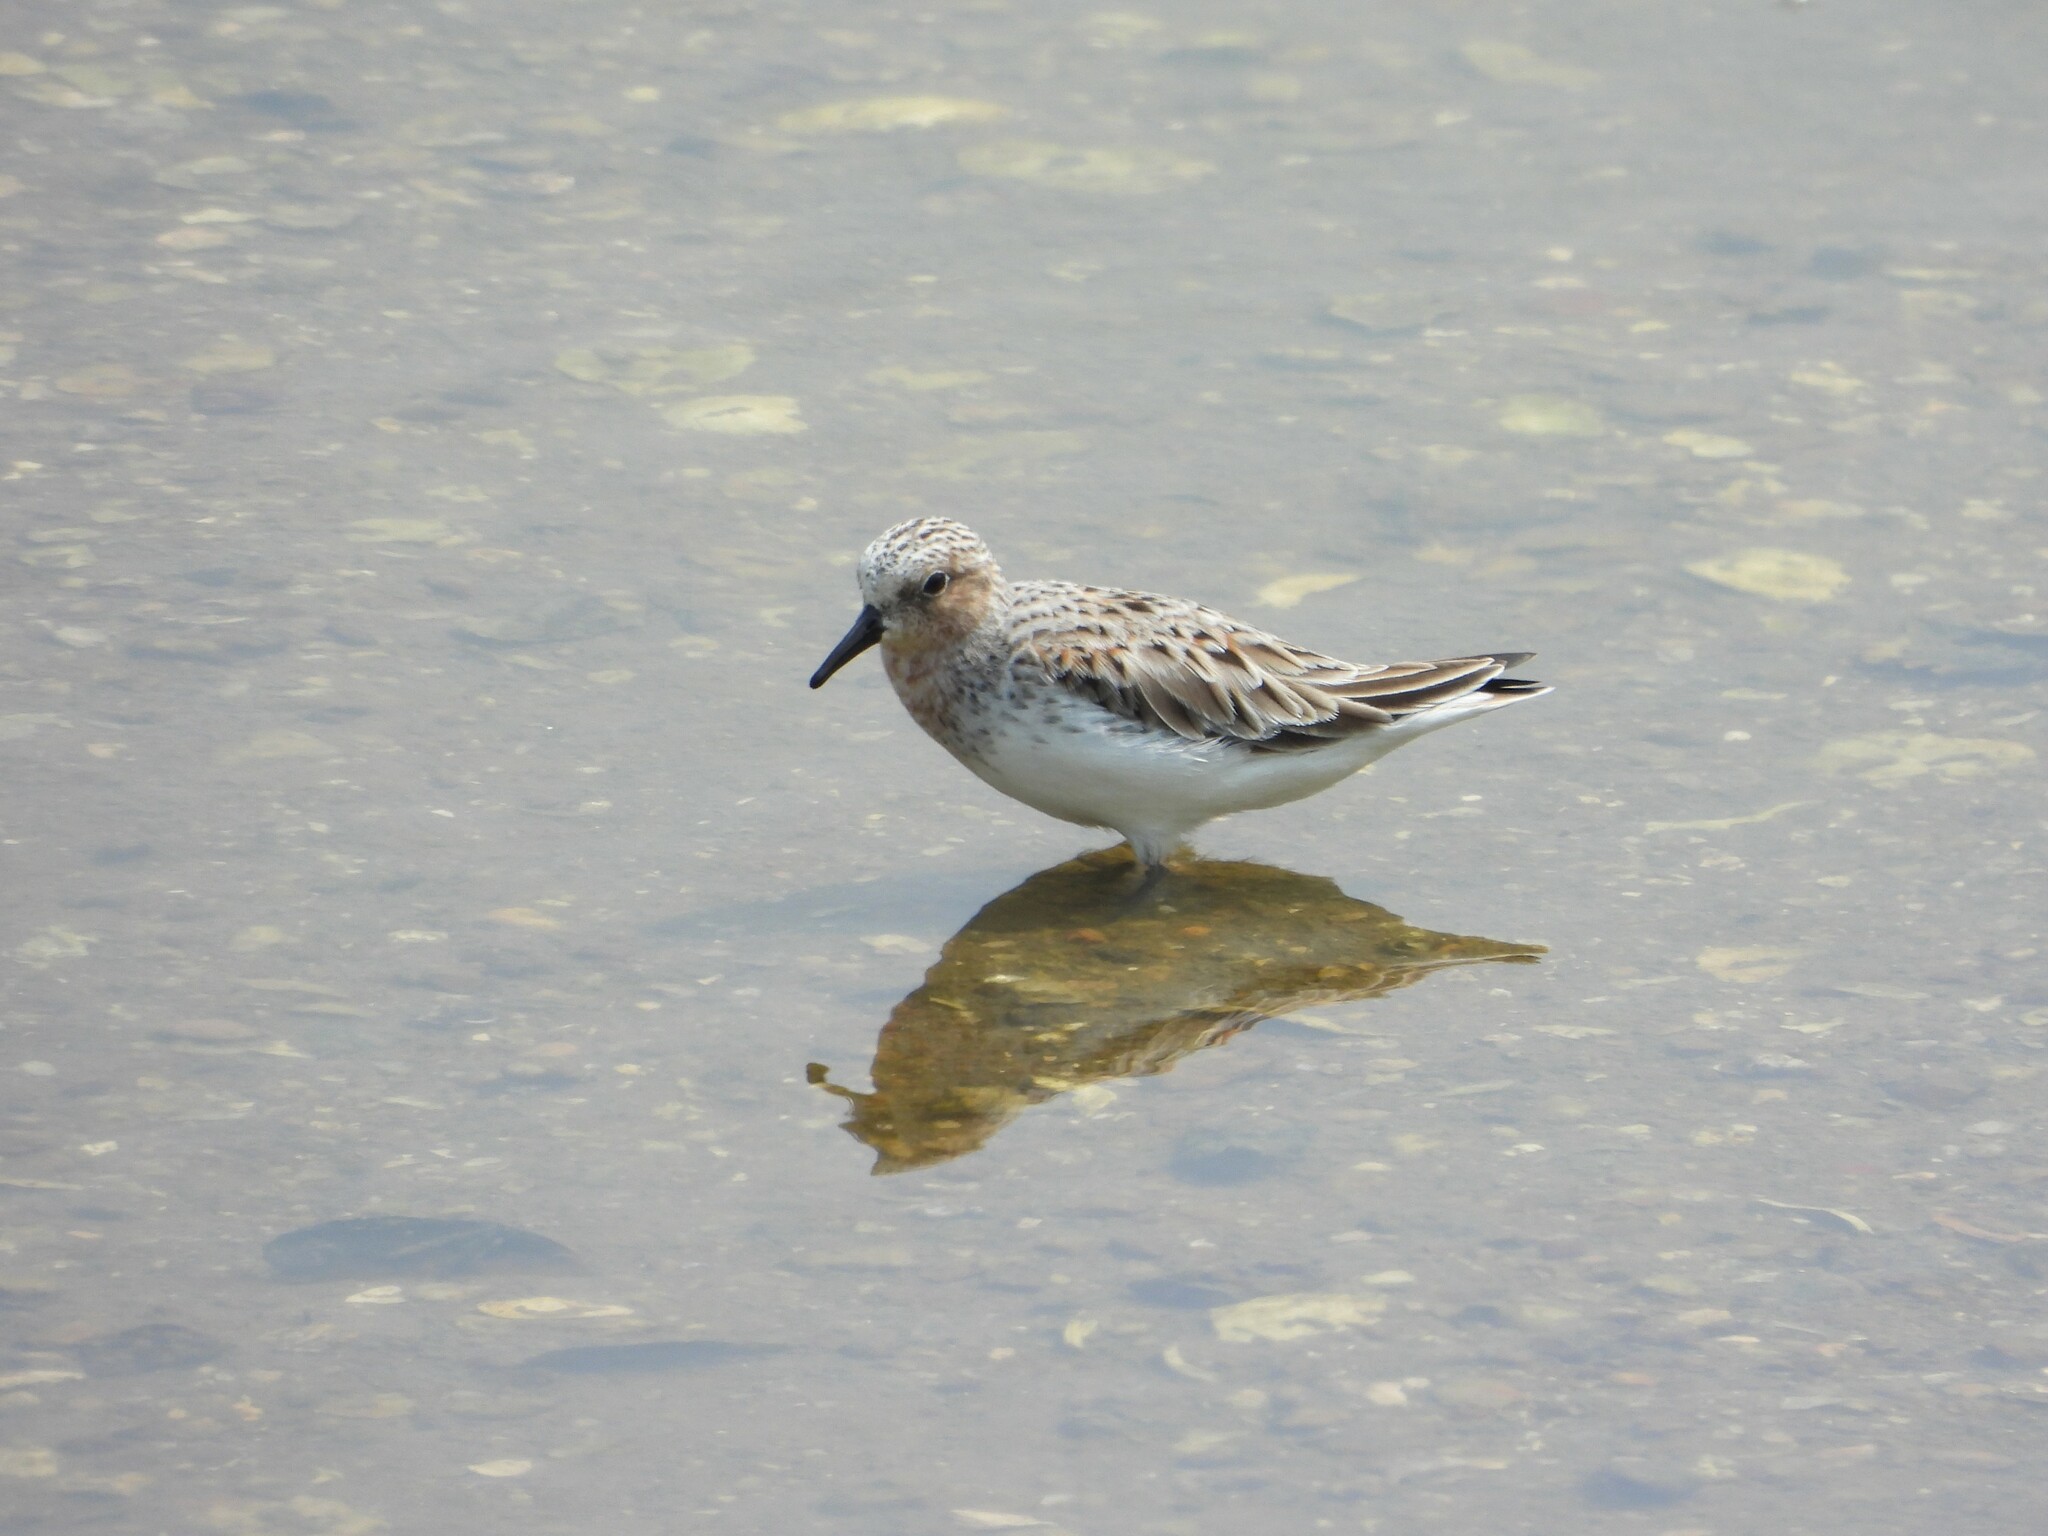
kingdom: Animalia
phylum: Chordata
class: Aves
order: Charadriiformes
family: Scolopacidae
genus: Calidris
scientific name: Calidris ruficollis
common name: Red-necked stint
